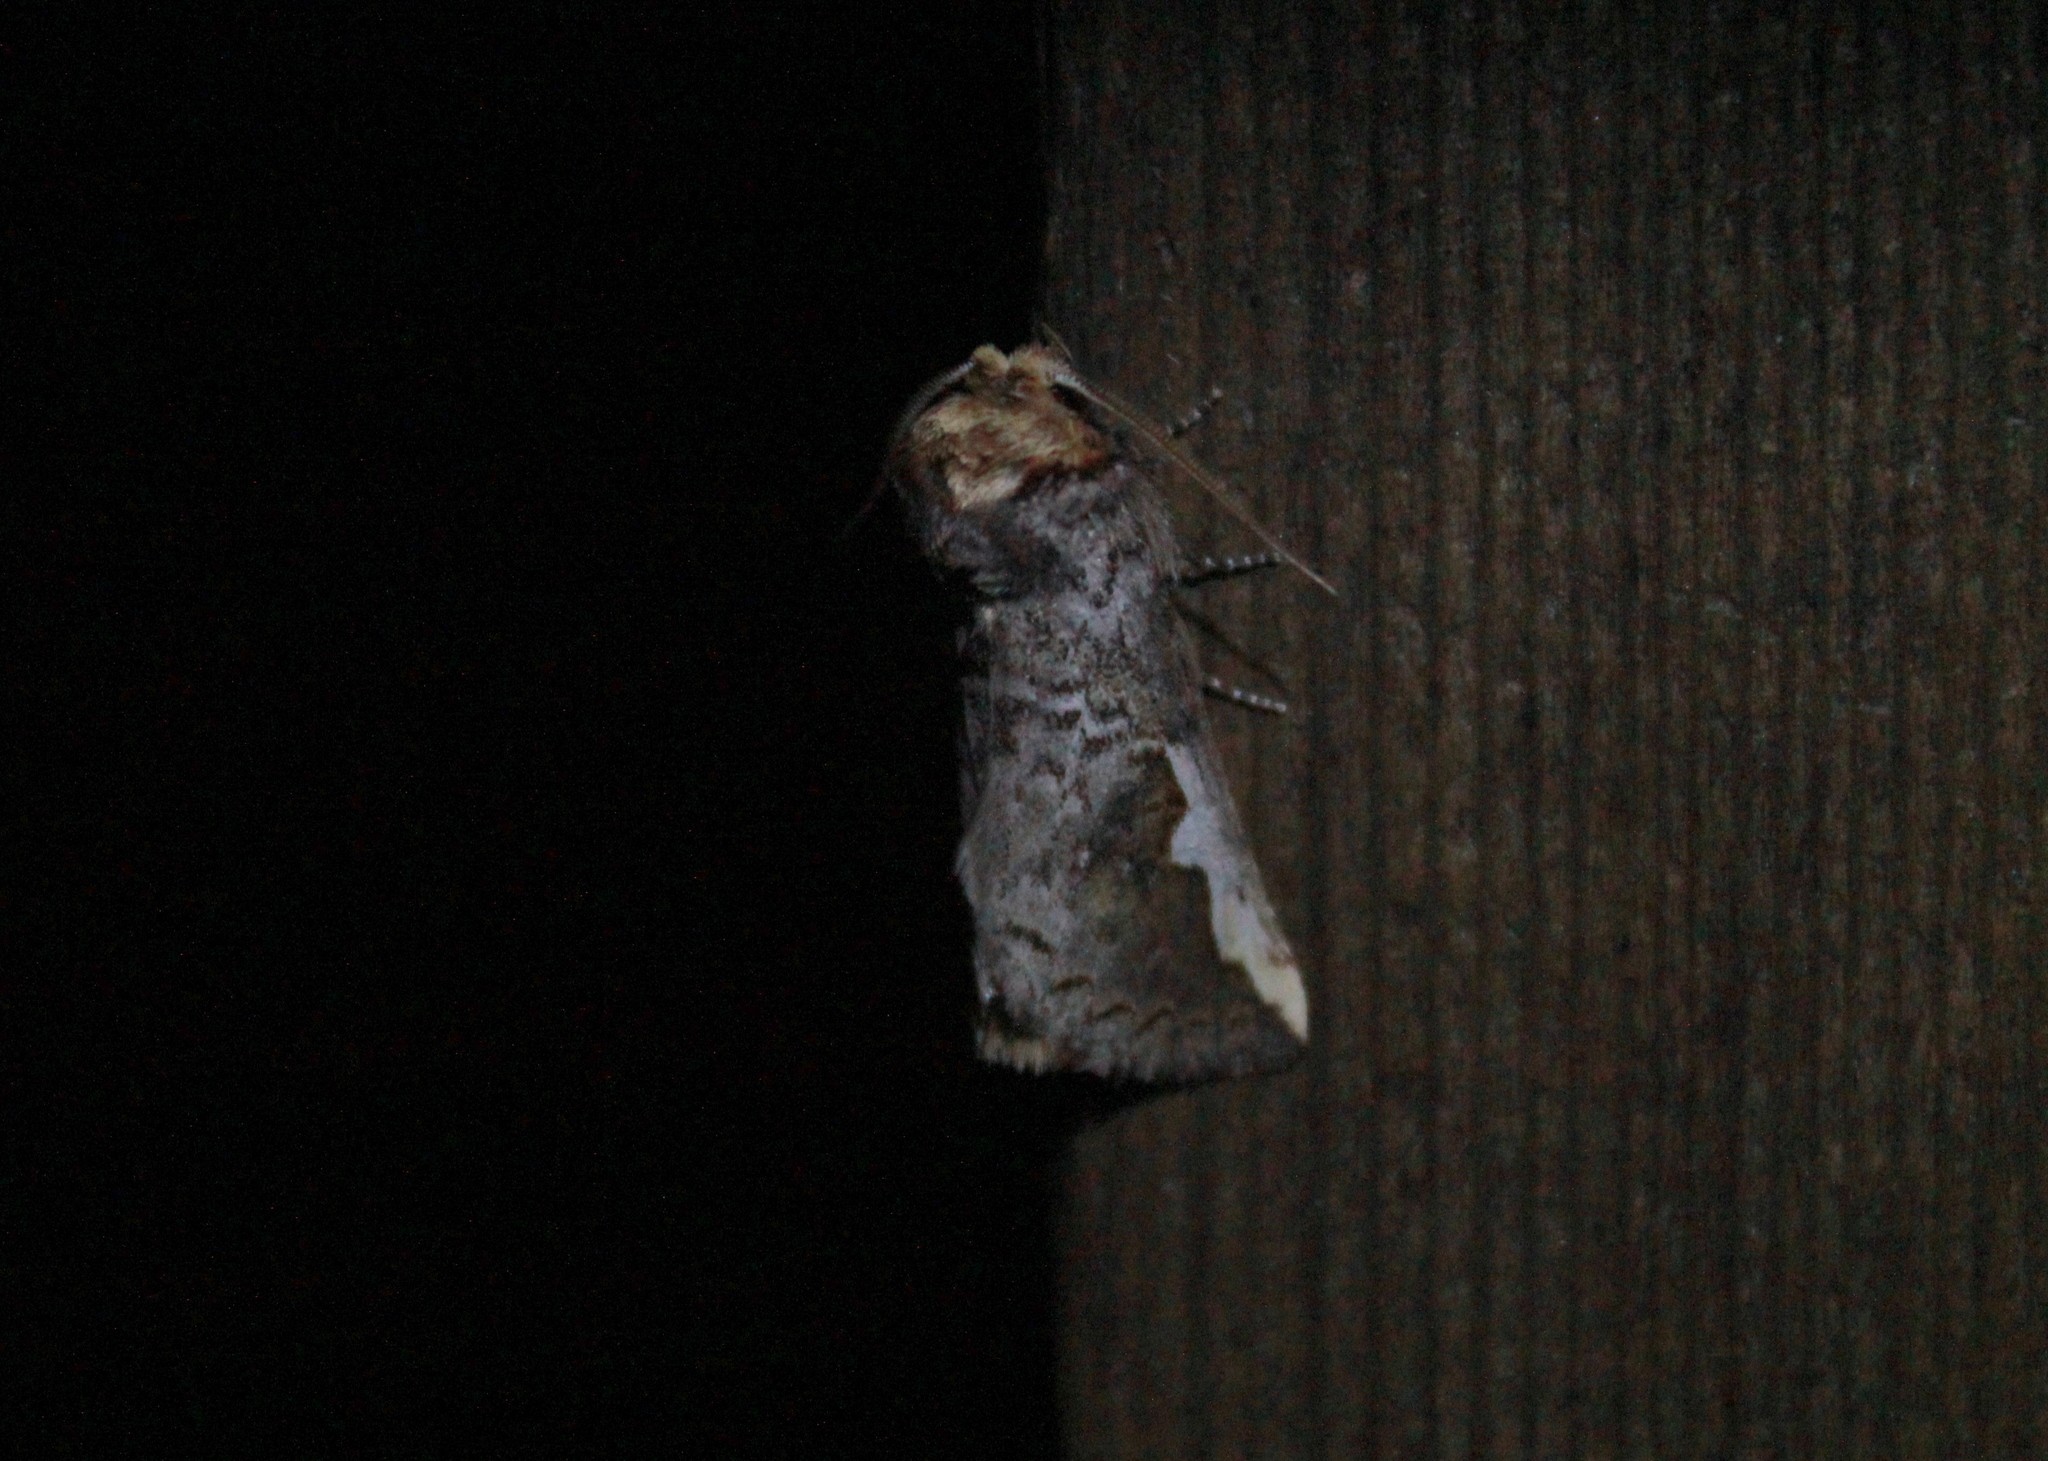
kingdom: Animalia
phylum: Arthropoda
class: Insecta
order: Lepidoptera
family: Notodontidae
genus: Symmerista
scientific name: Symmerista albifrons
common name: White-headed prominent
